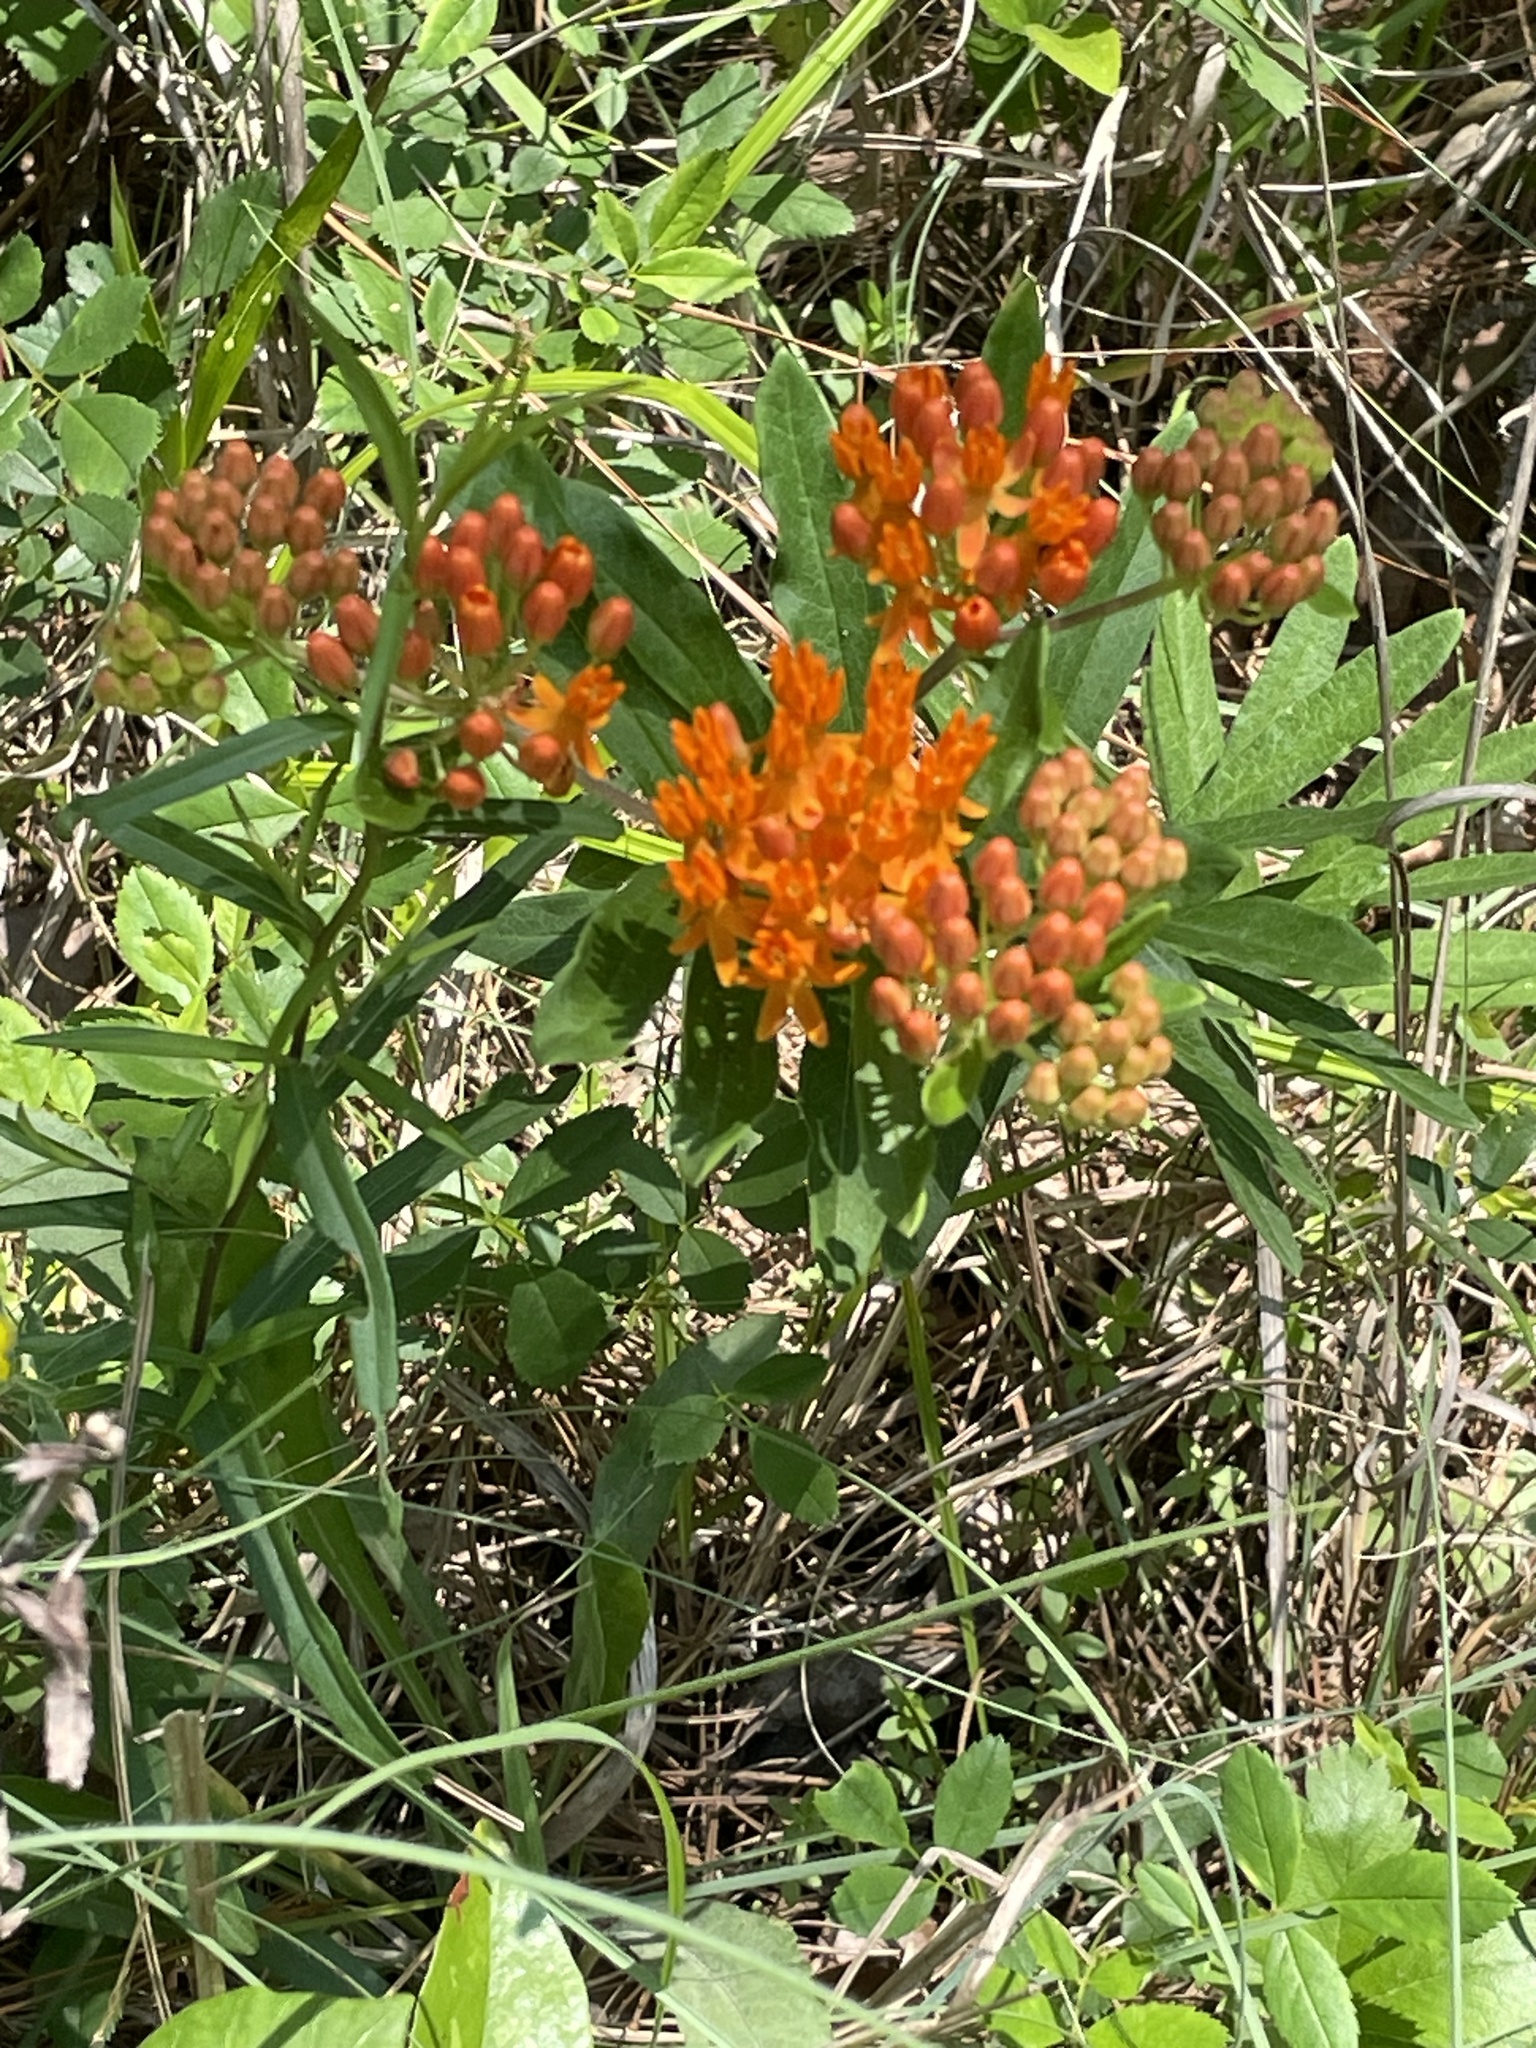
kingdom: Plantae
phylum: Tracheophyta
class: Magnoliopsida
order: Gentianales
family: Apocynaceae
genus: Asclepias
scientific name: Asclepias tuberosa
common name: Butterfly milkweed
